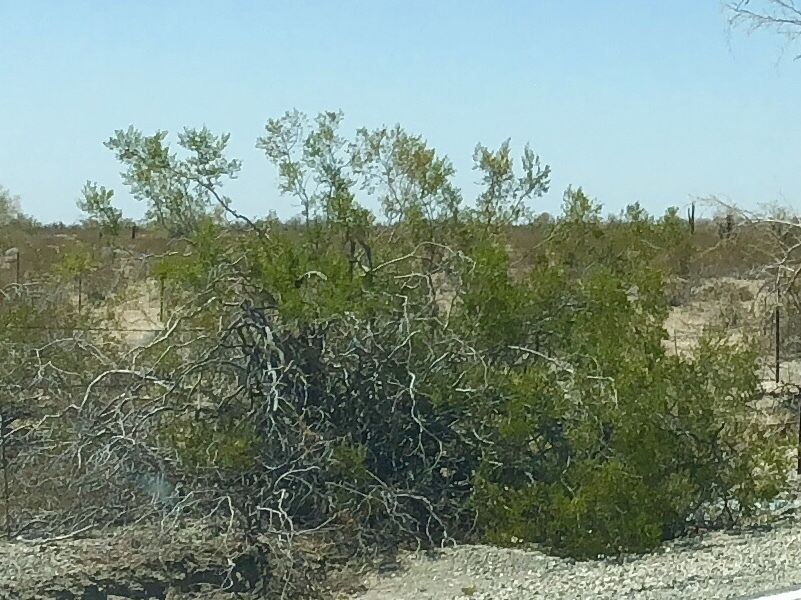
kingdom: Plantae
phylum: Tracheophyta
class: Magnoliopsida
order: Zygophyllales
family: Zygophyllaceae
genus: Larrea
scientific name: Larrea tridentata
